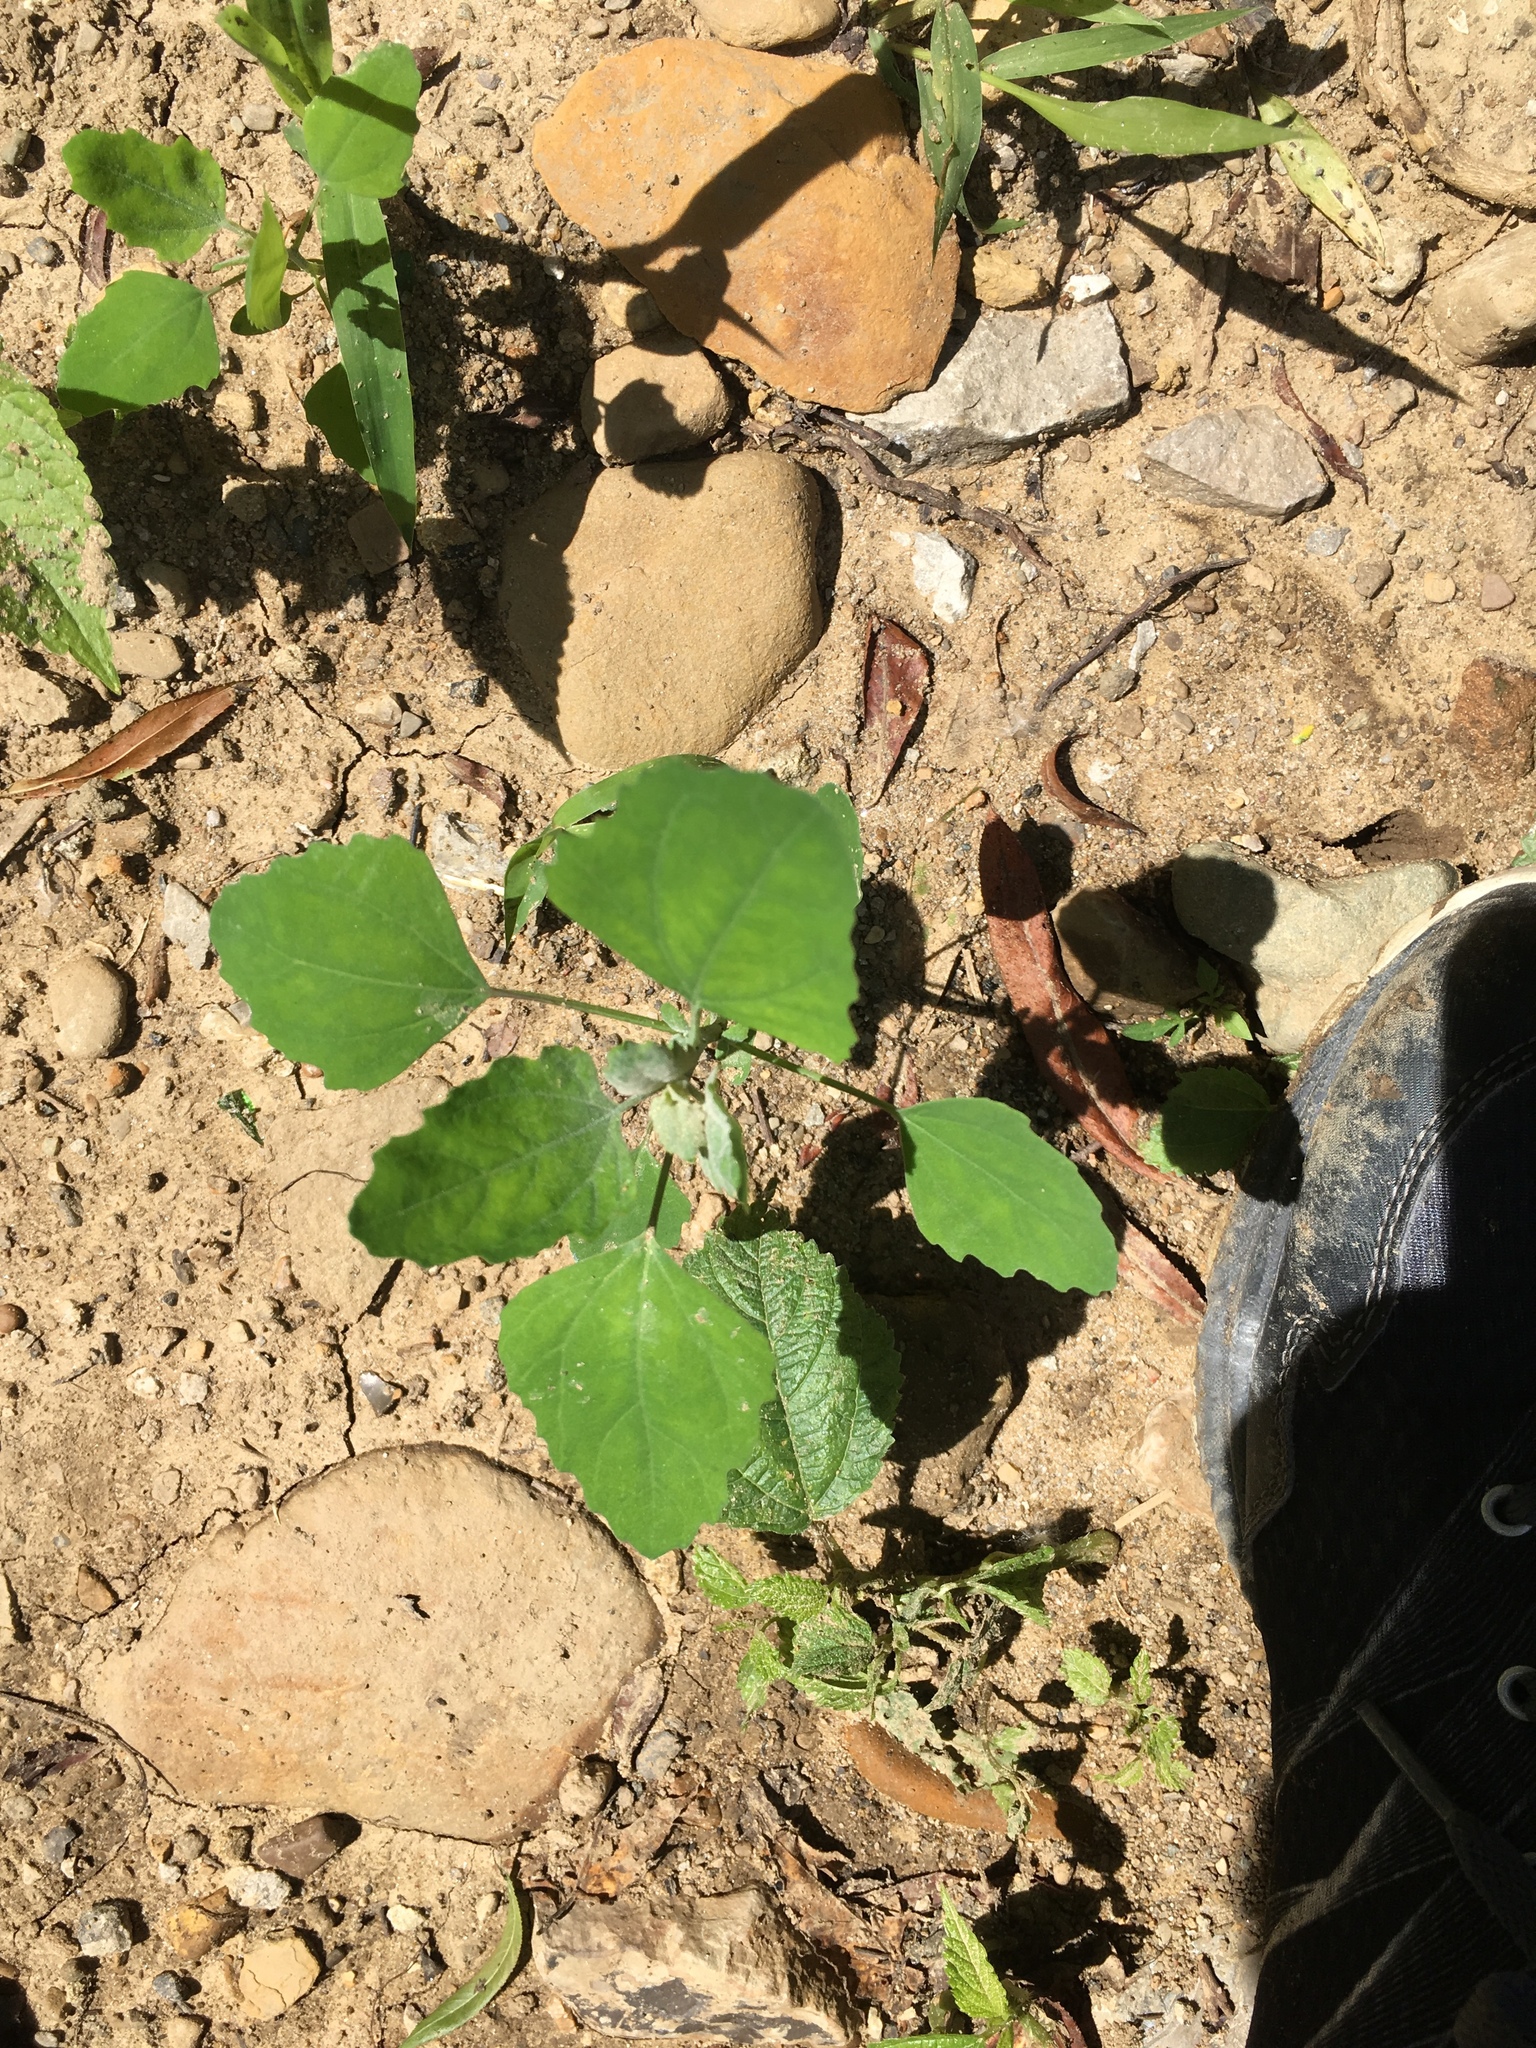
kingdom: Plantae
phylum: Tracheophyta
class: Magnoliopsida
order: Caryophyllales
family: Amaranthaceae
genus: Chenopodium
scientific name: Chenopodium album
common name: Fat-hen
